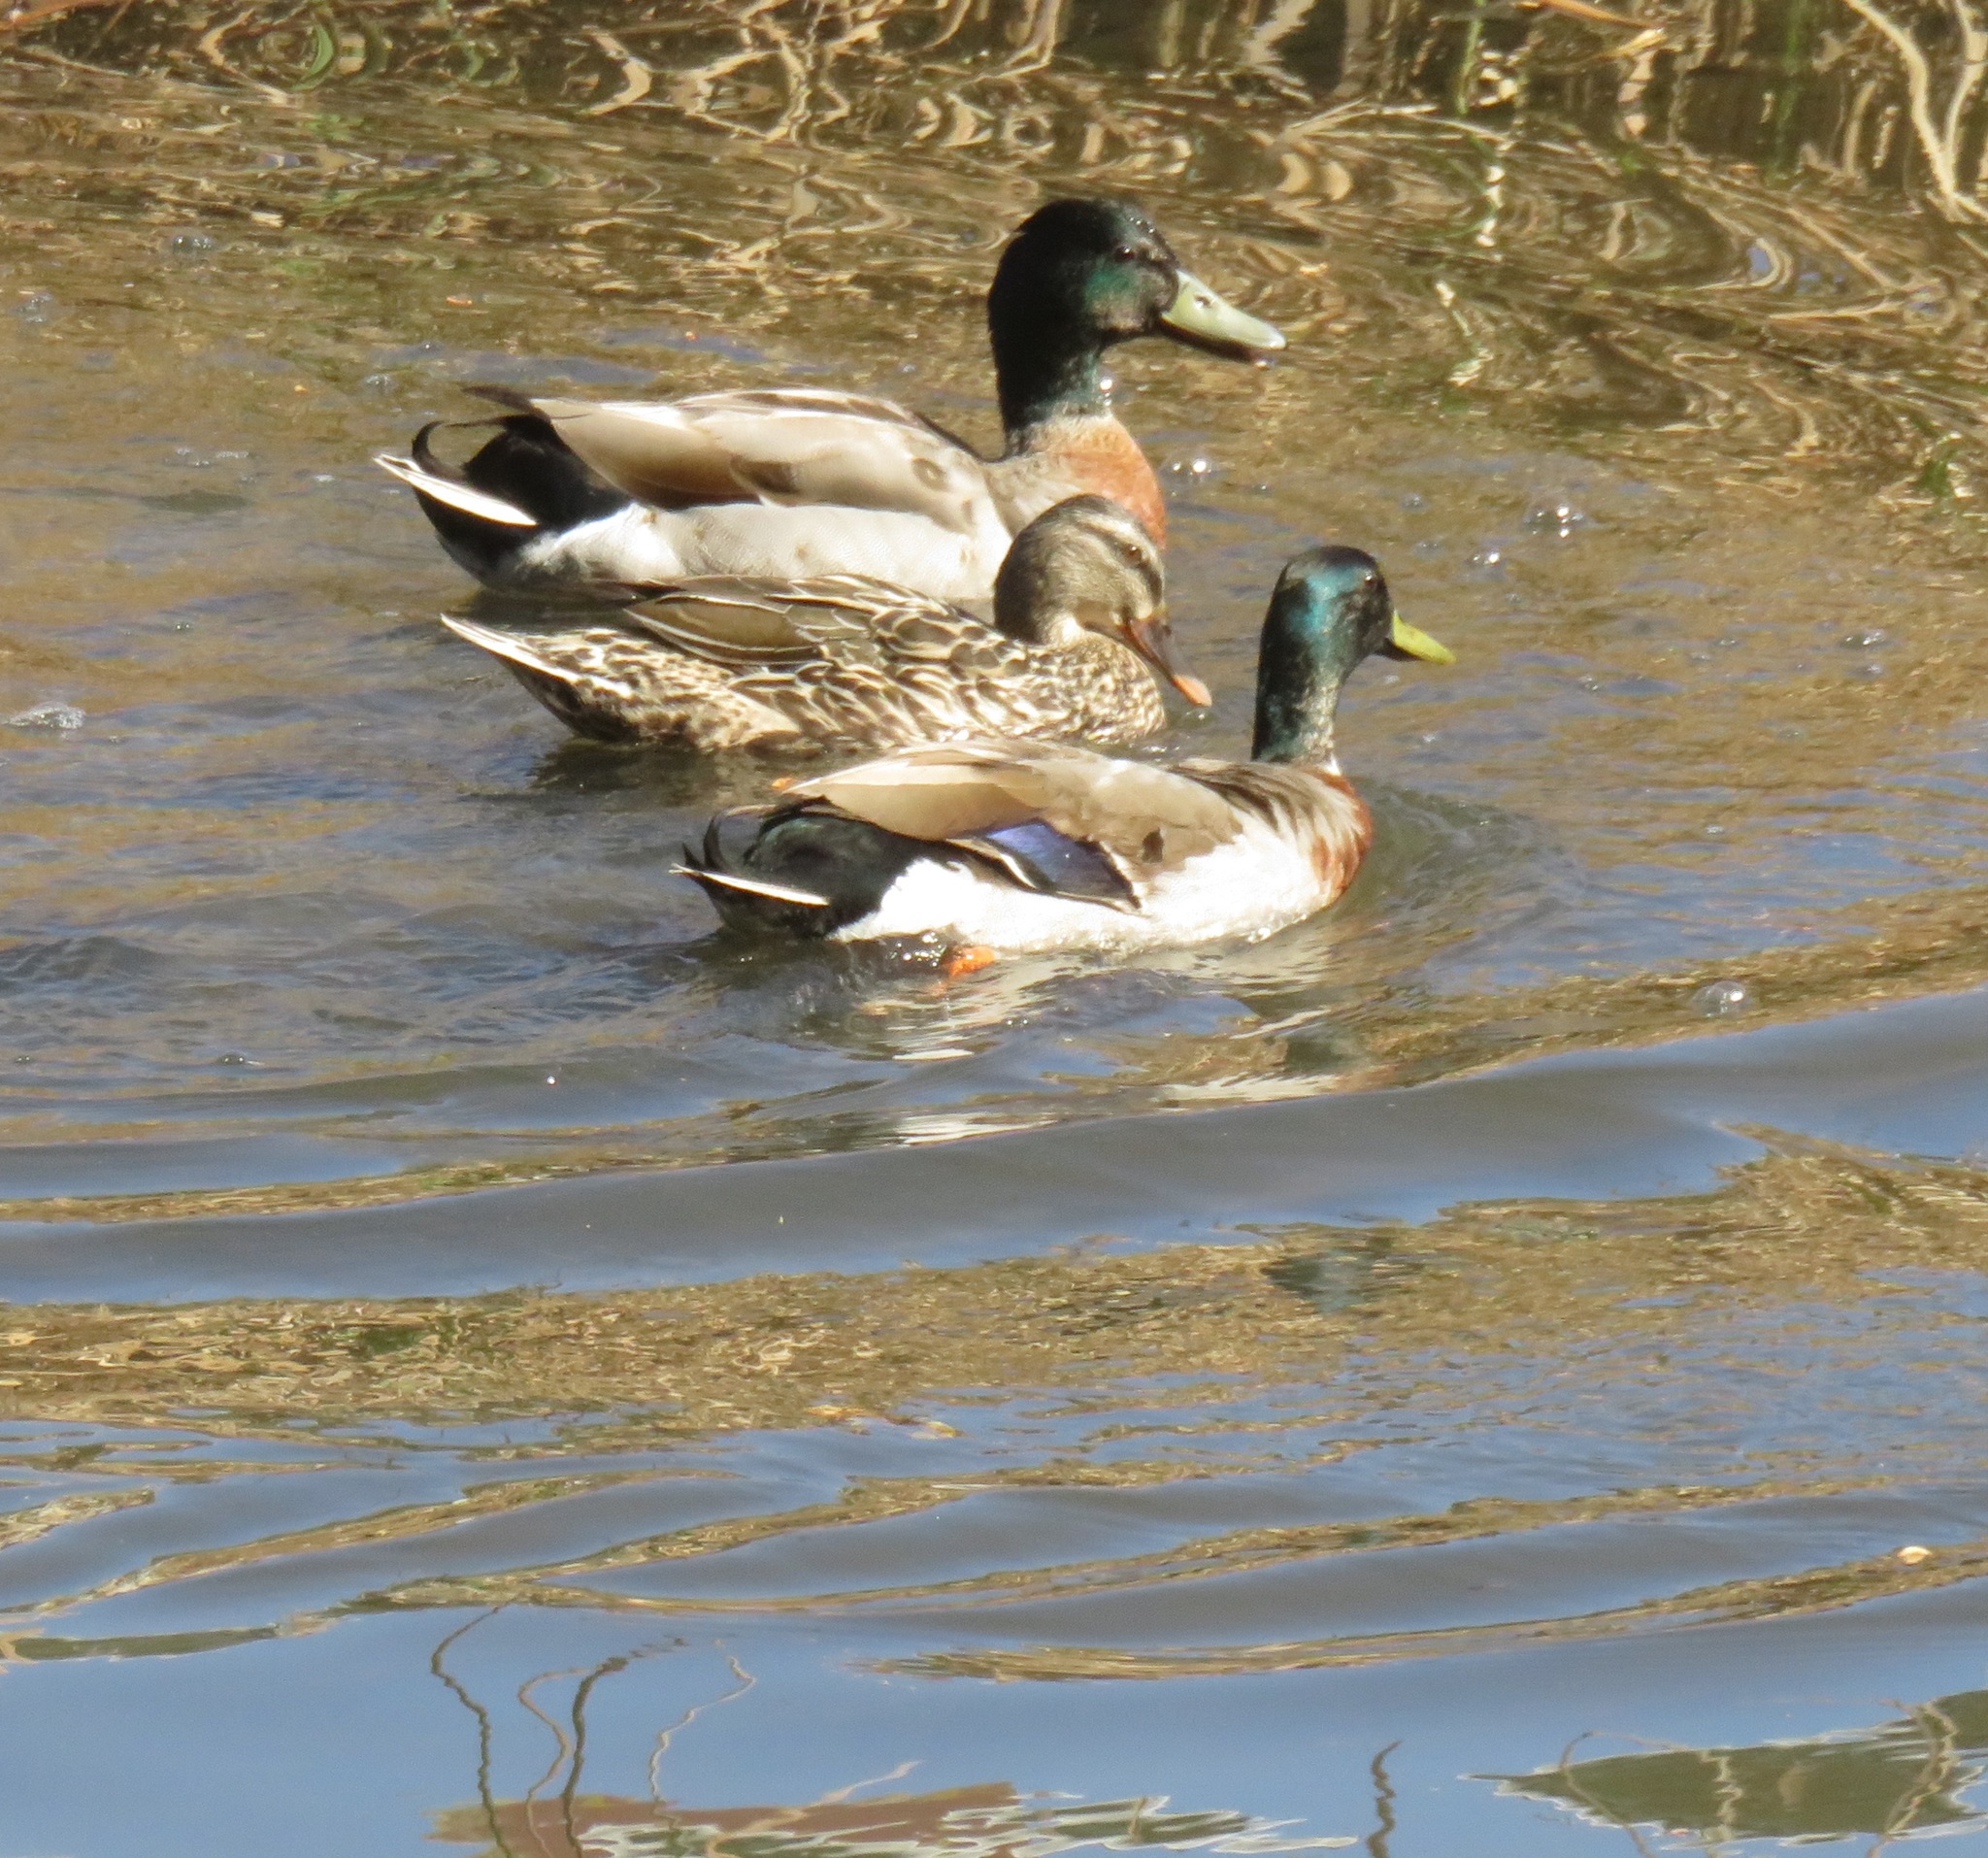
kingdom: Animalia
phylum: Chordata
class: Aves
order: Anseriformes
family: Anatidae
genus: Anas
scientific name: Anas platyrhynchos
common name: Mallard
